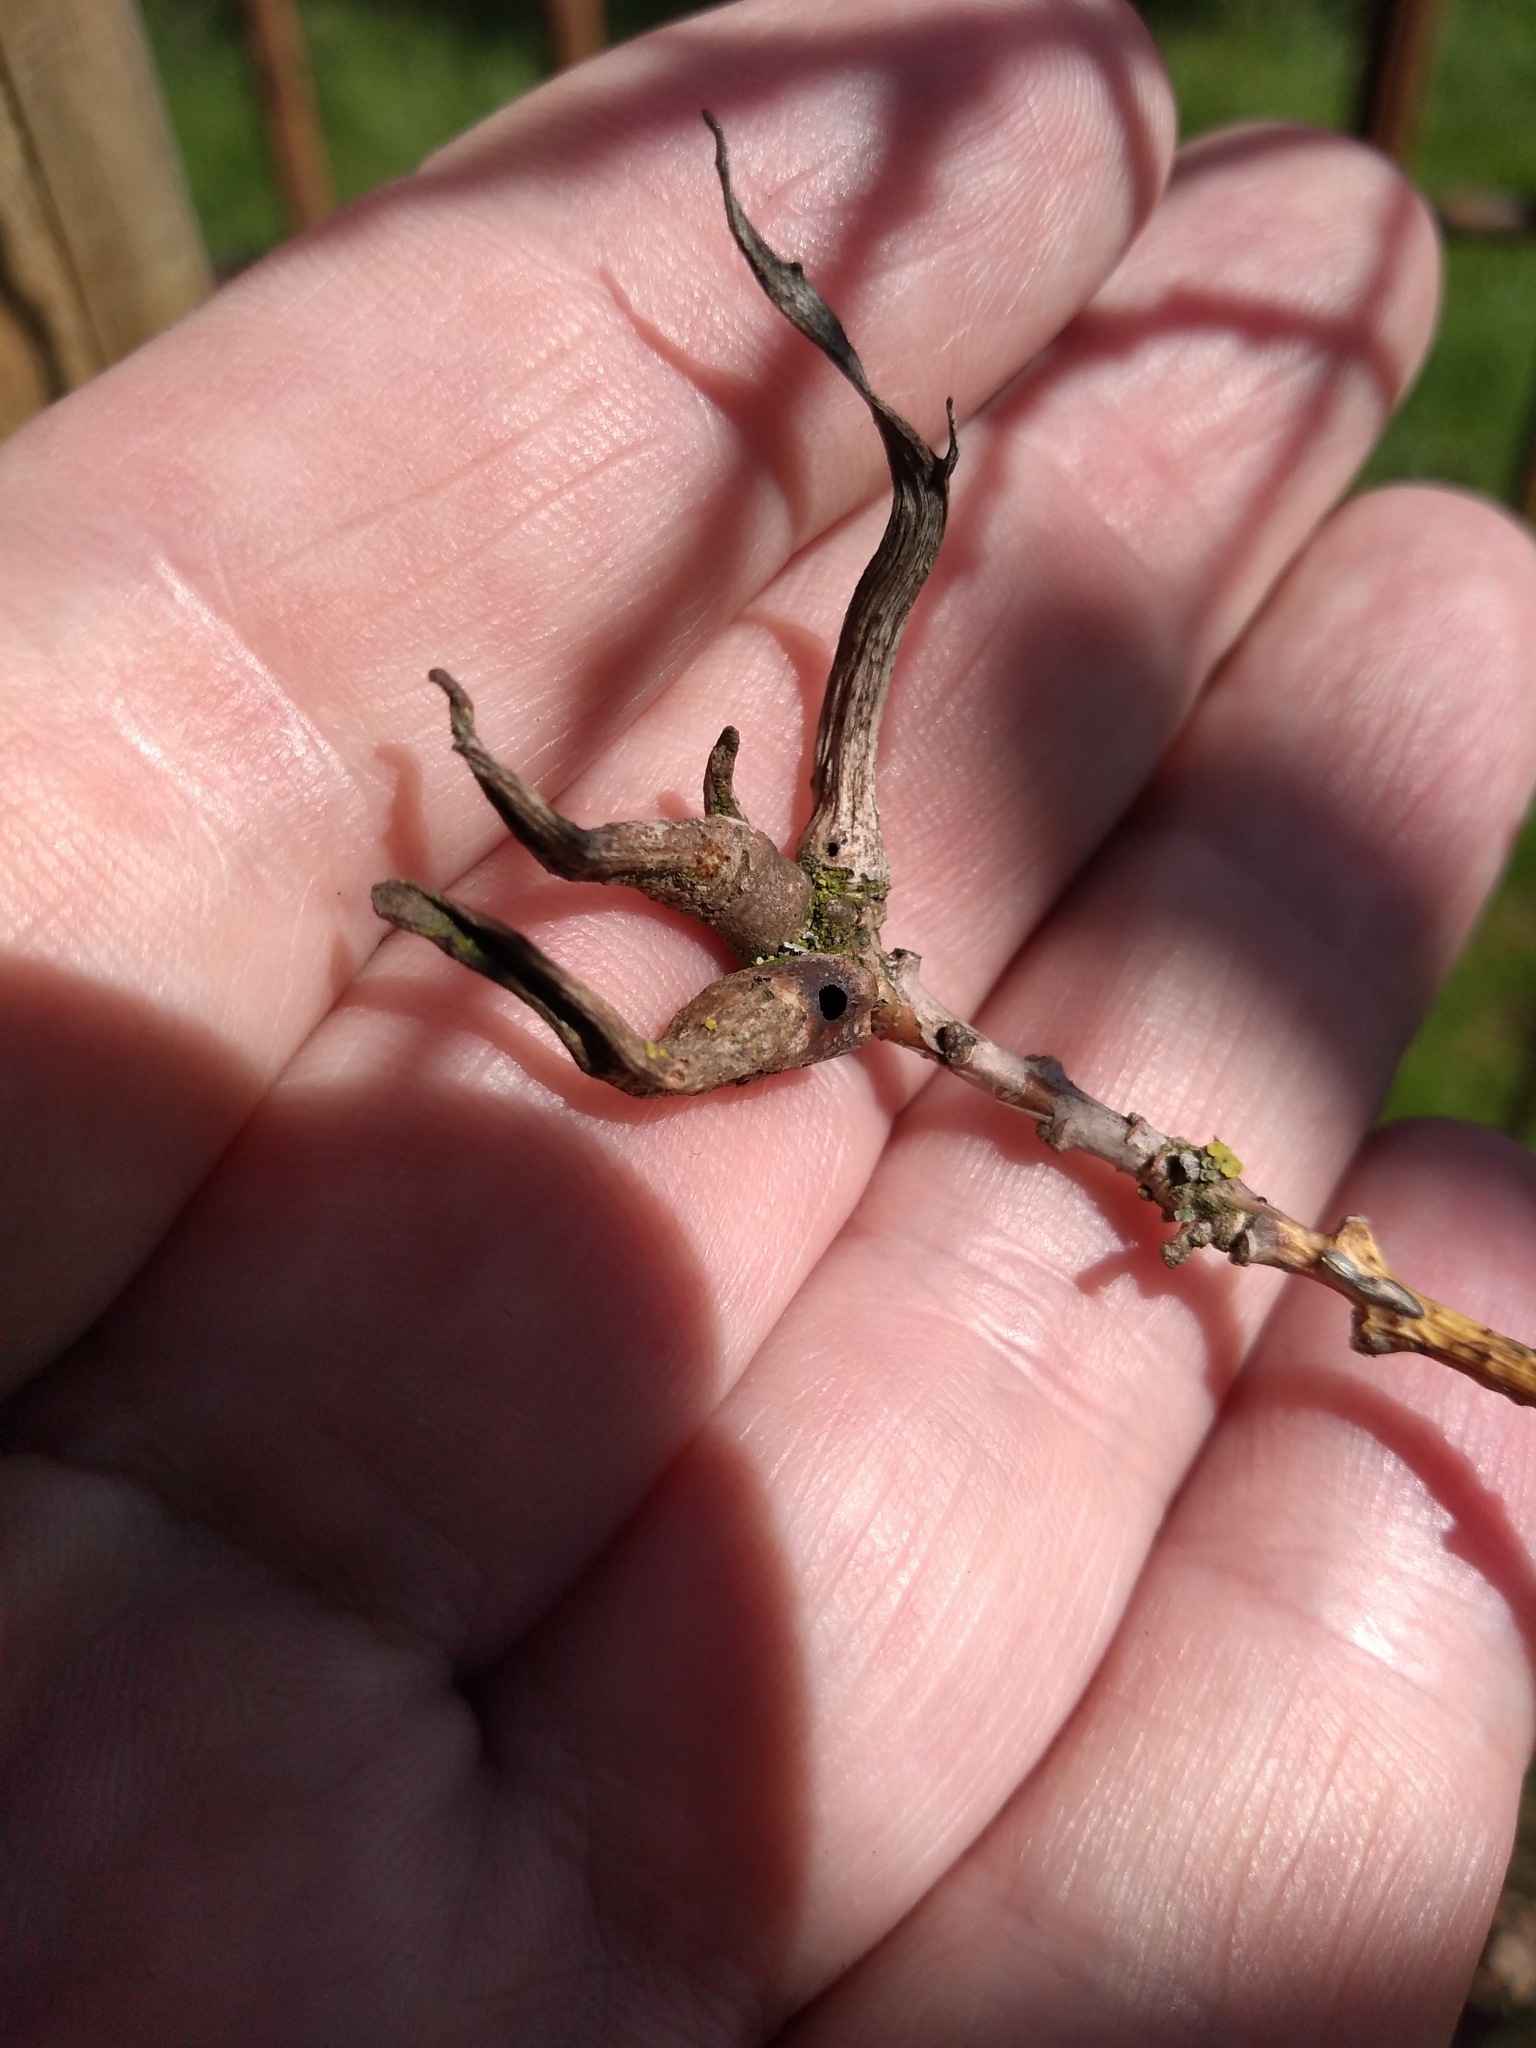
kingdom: Animalia
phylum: Arthropoda
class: Insecta
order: Hymenoptera
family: Cynipidae
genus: Andricus
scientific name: Andricus aries
